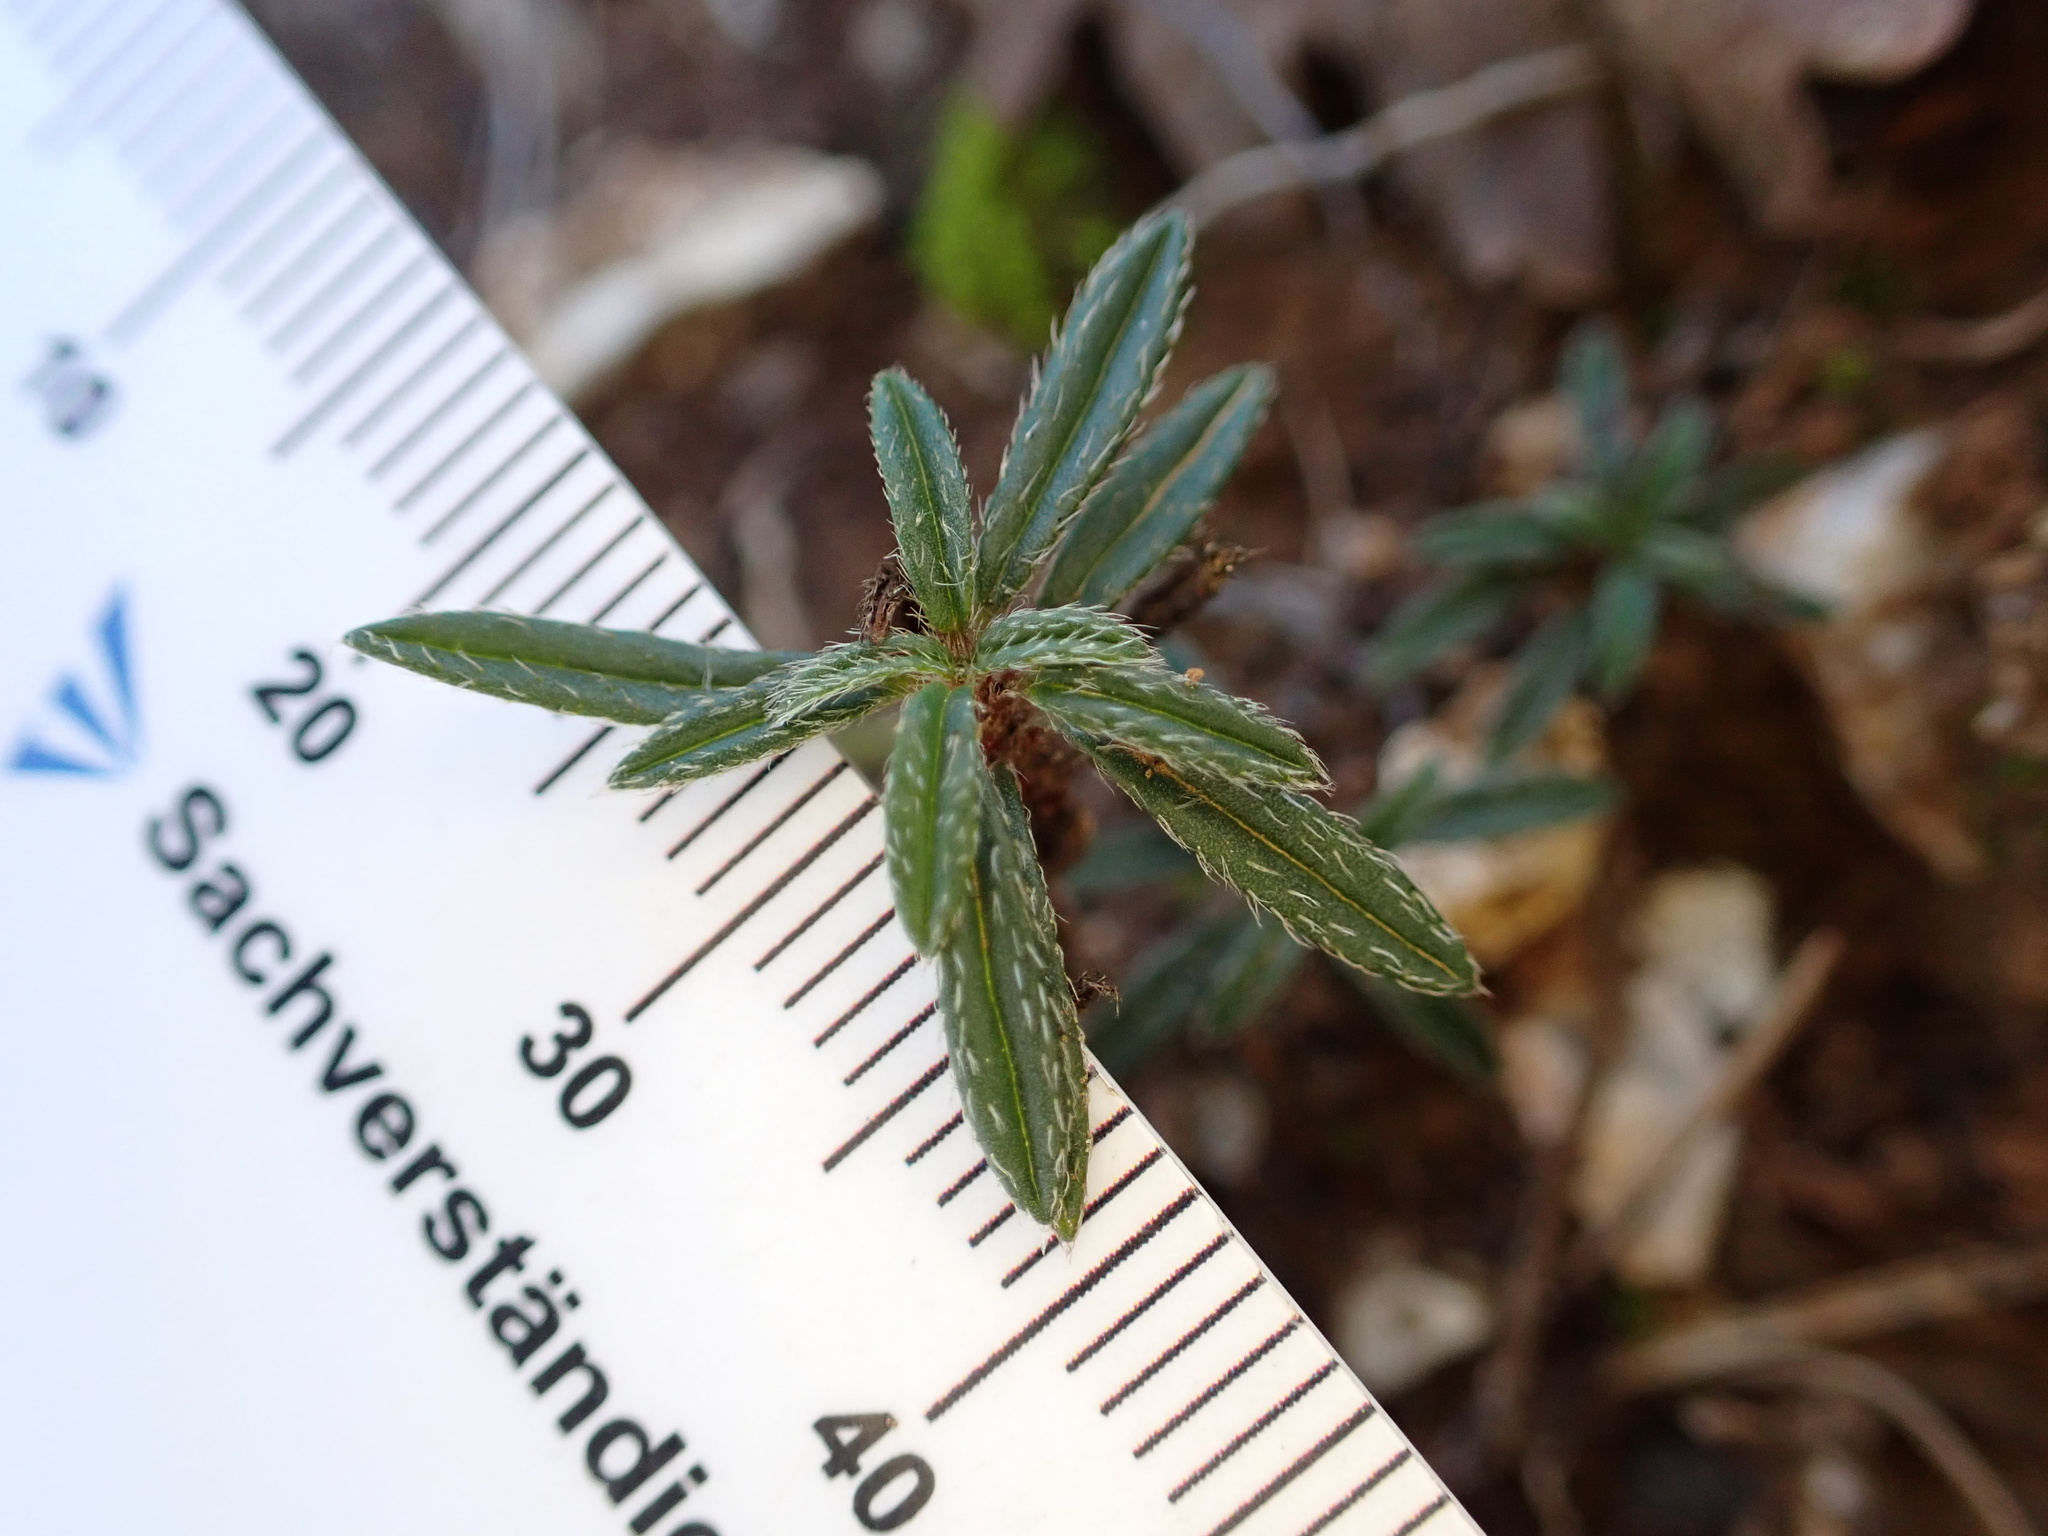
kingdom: Plantae
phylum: Tracheophyta
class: Magnoliopsida
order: Malvales
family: Cistaceae
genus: Helianthemum
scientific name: Helianthemum oelandicum
